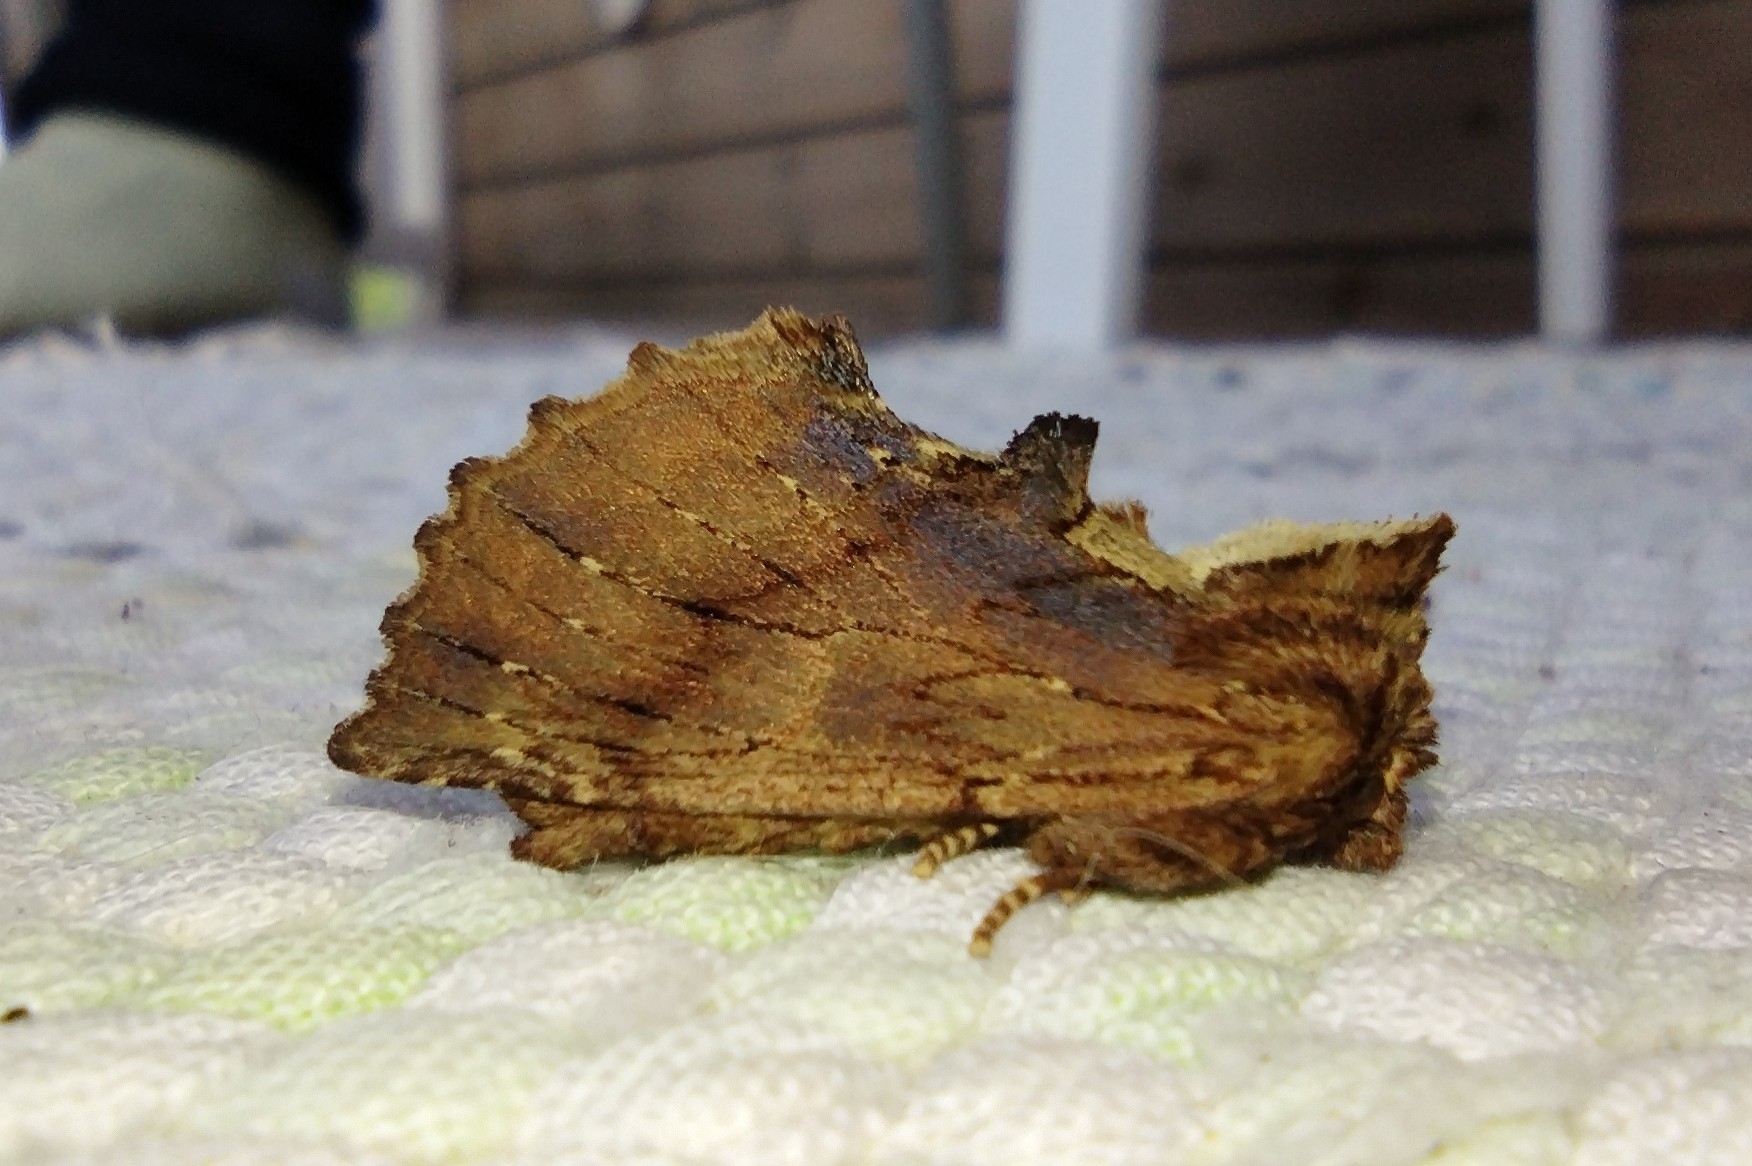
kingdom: Animalia
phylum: Arthropoda
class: Insecta
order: Lepidoptera
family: Notodontidae
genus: Ptilodon
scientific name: Ptilodon capucina
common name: Coxcomb prominent
